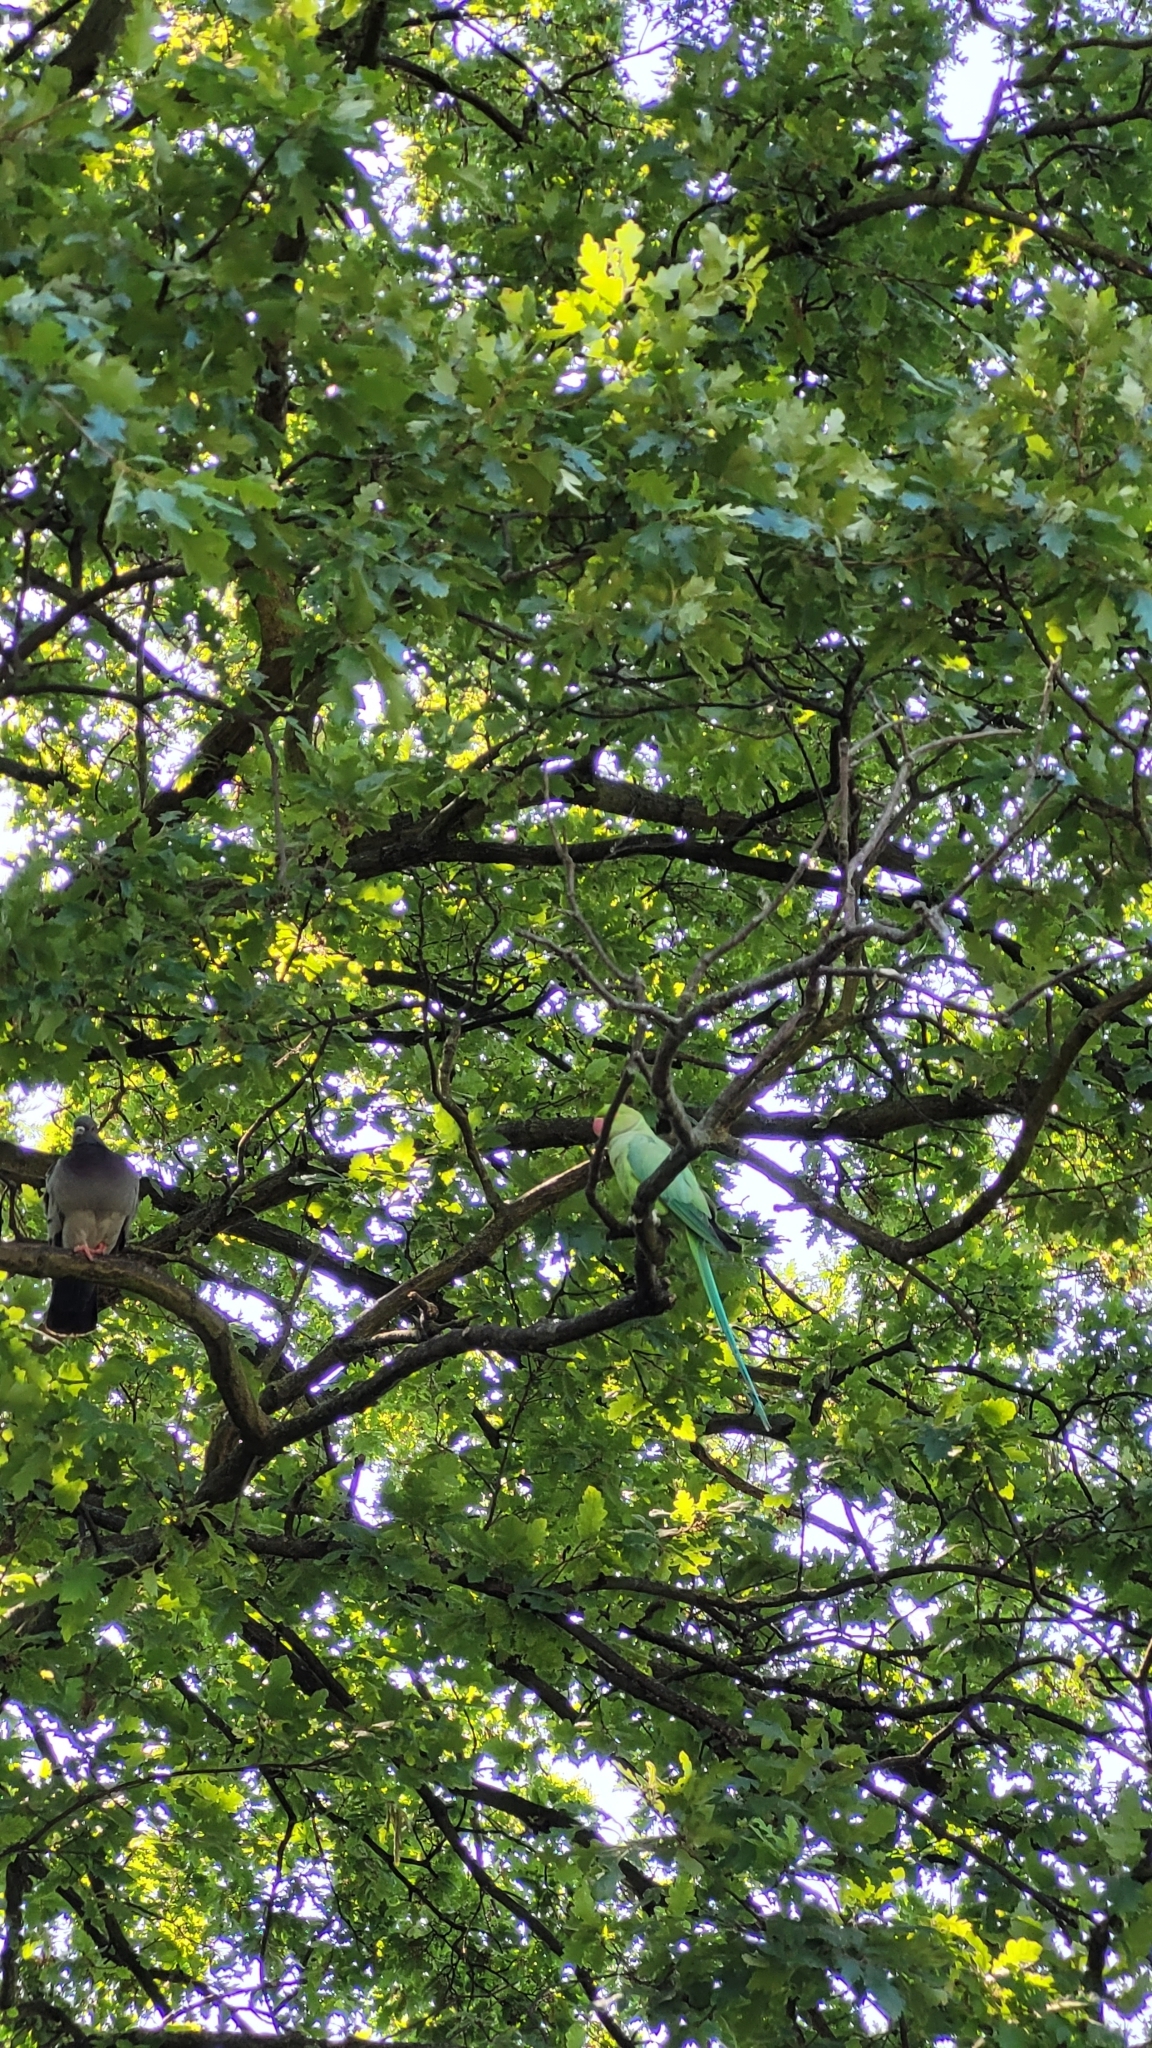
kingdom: Animalia
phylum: Chordata
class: Aves
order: Psittaciformes
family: Psittacidae
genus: Psittacula
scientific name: Psittacula krameri
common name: Rose-ringed parakeet
